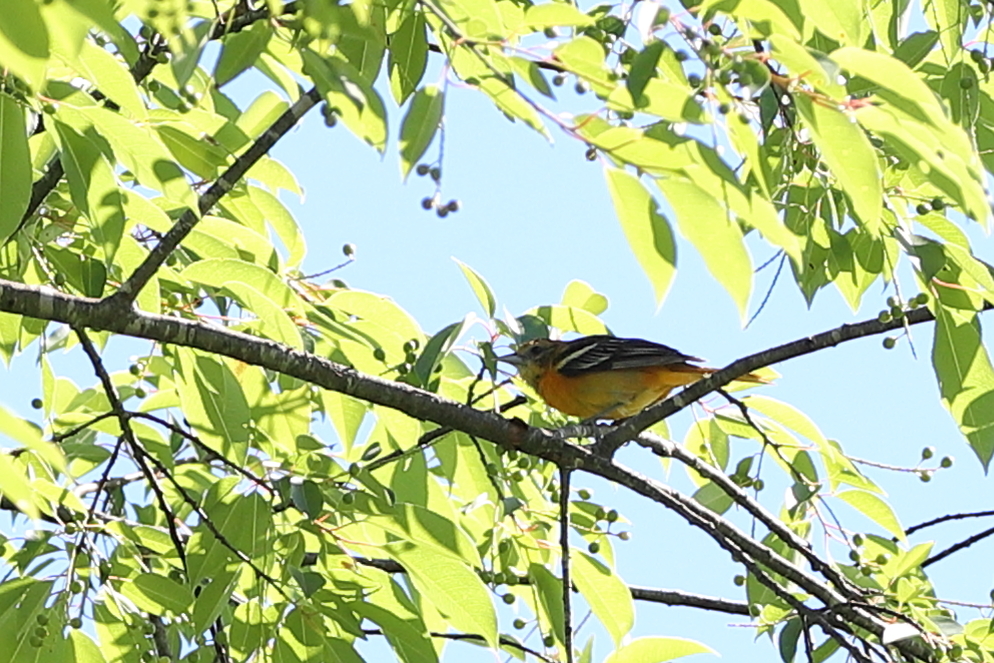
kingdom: Animalia
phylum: Chordata
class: Aves
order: Passeriformes
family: Icteridae
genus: Icterus
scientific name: Icterus galbula
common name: Baltimore oriole
